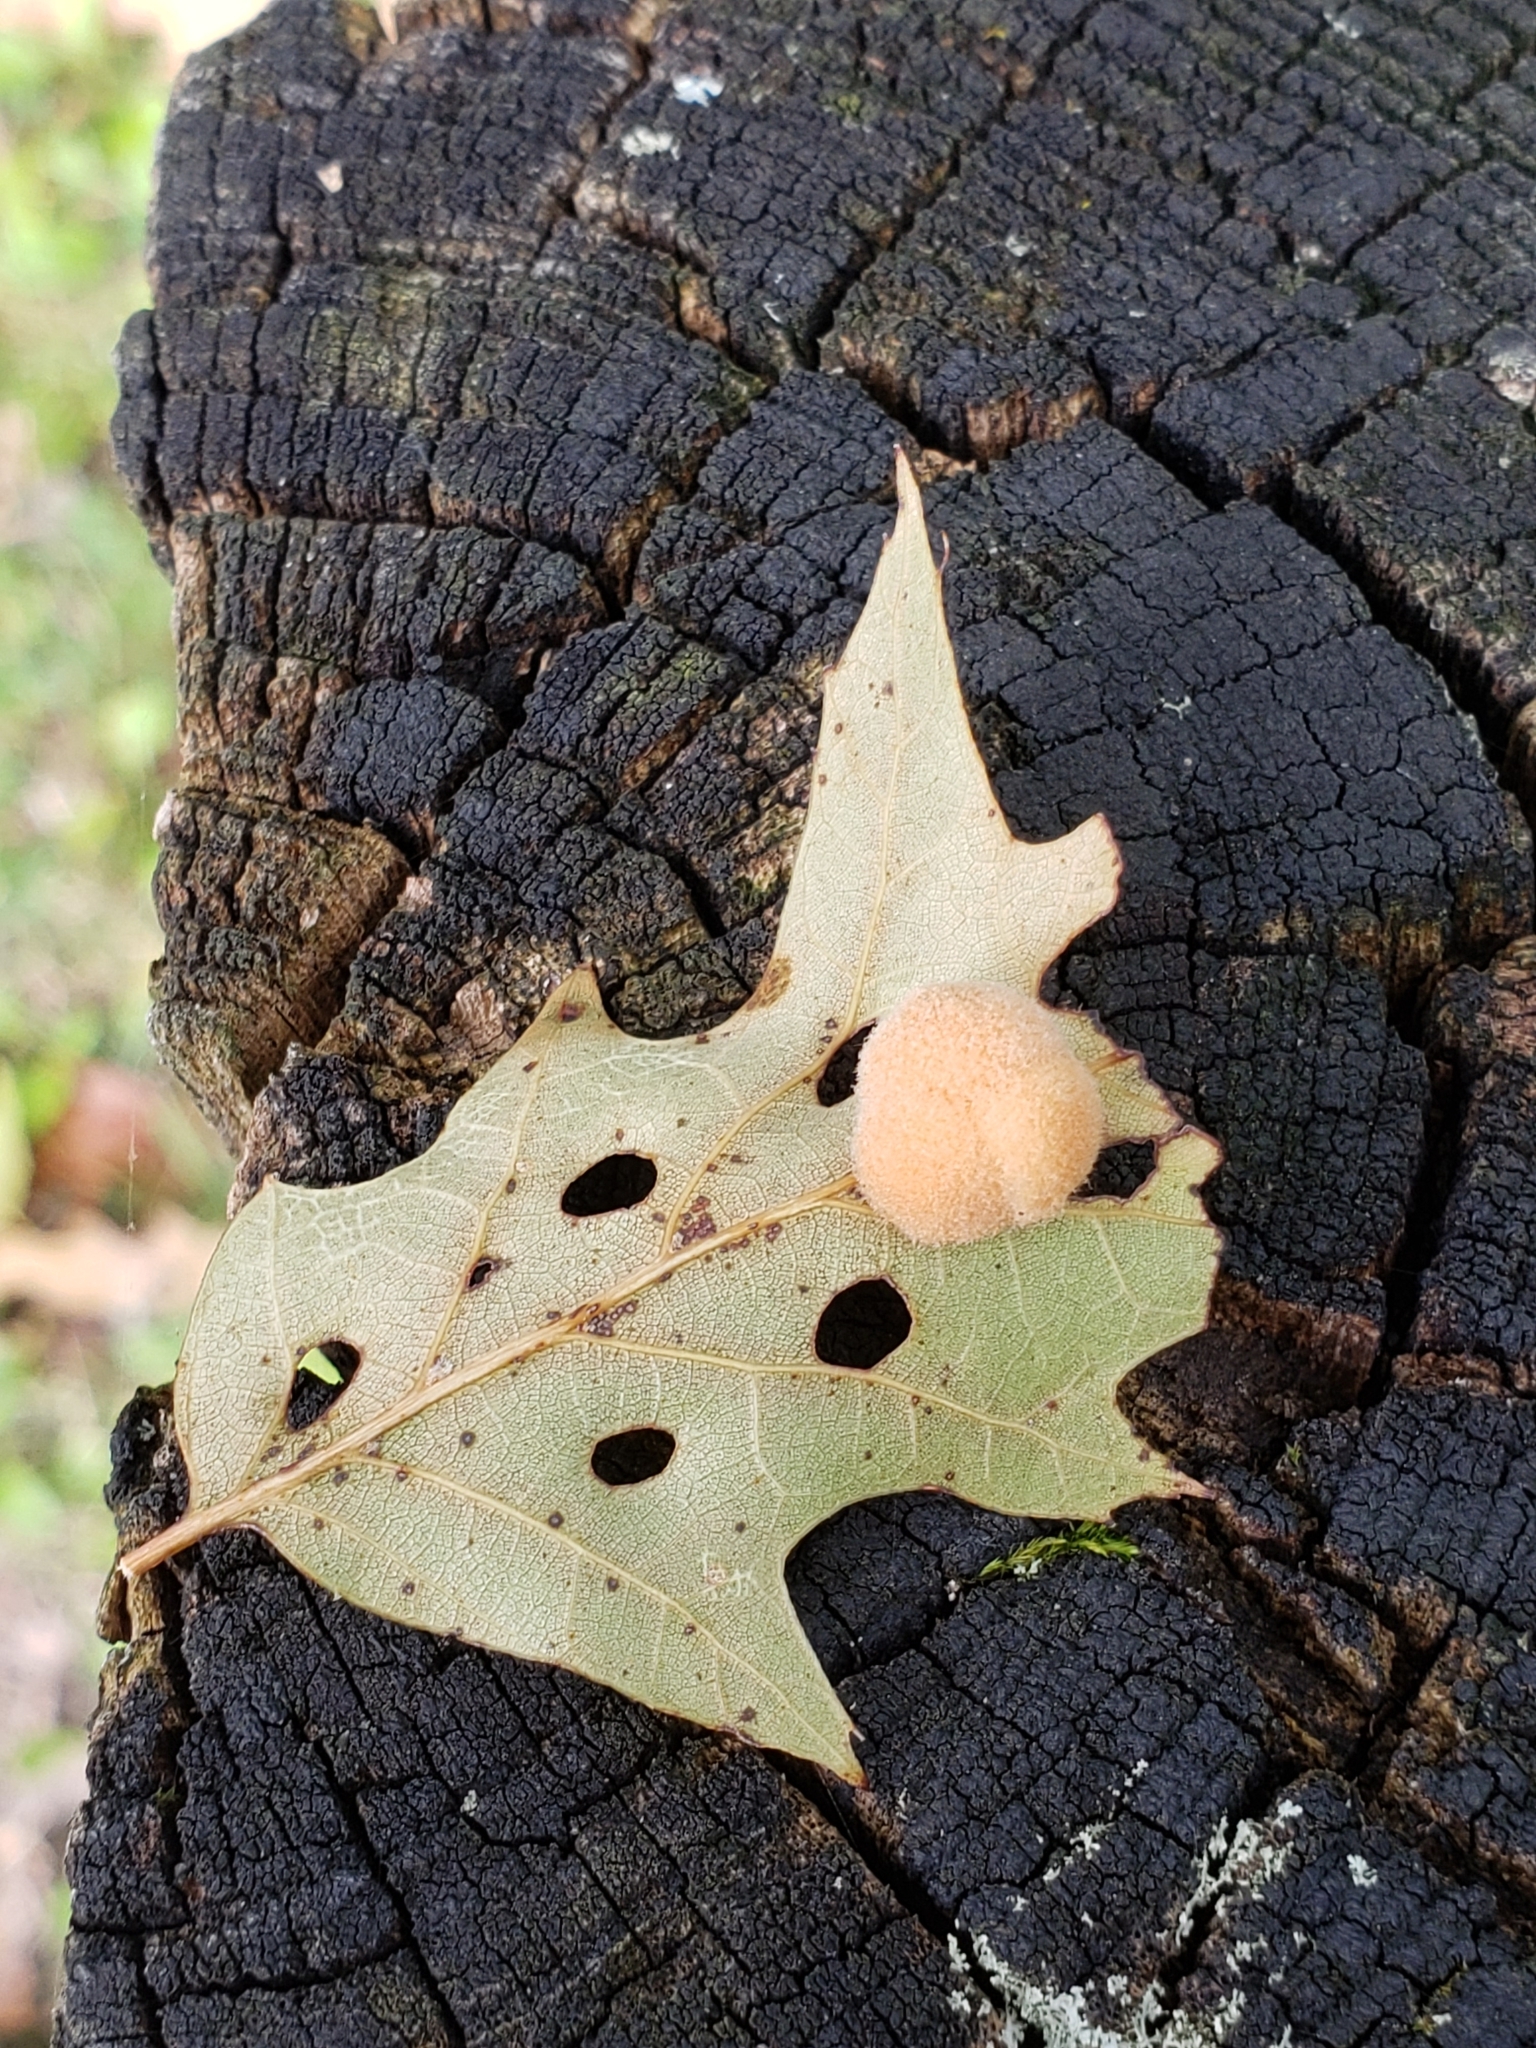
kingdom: Animalia
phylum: Arthropoda
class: Insecta
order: Hymenoptera
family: Cynipidae
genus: Callirhytis
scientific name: Callirhytis
